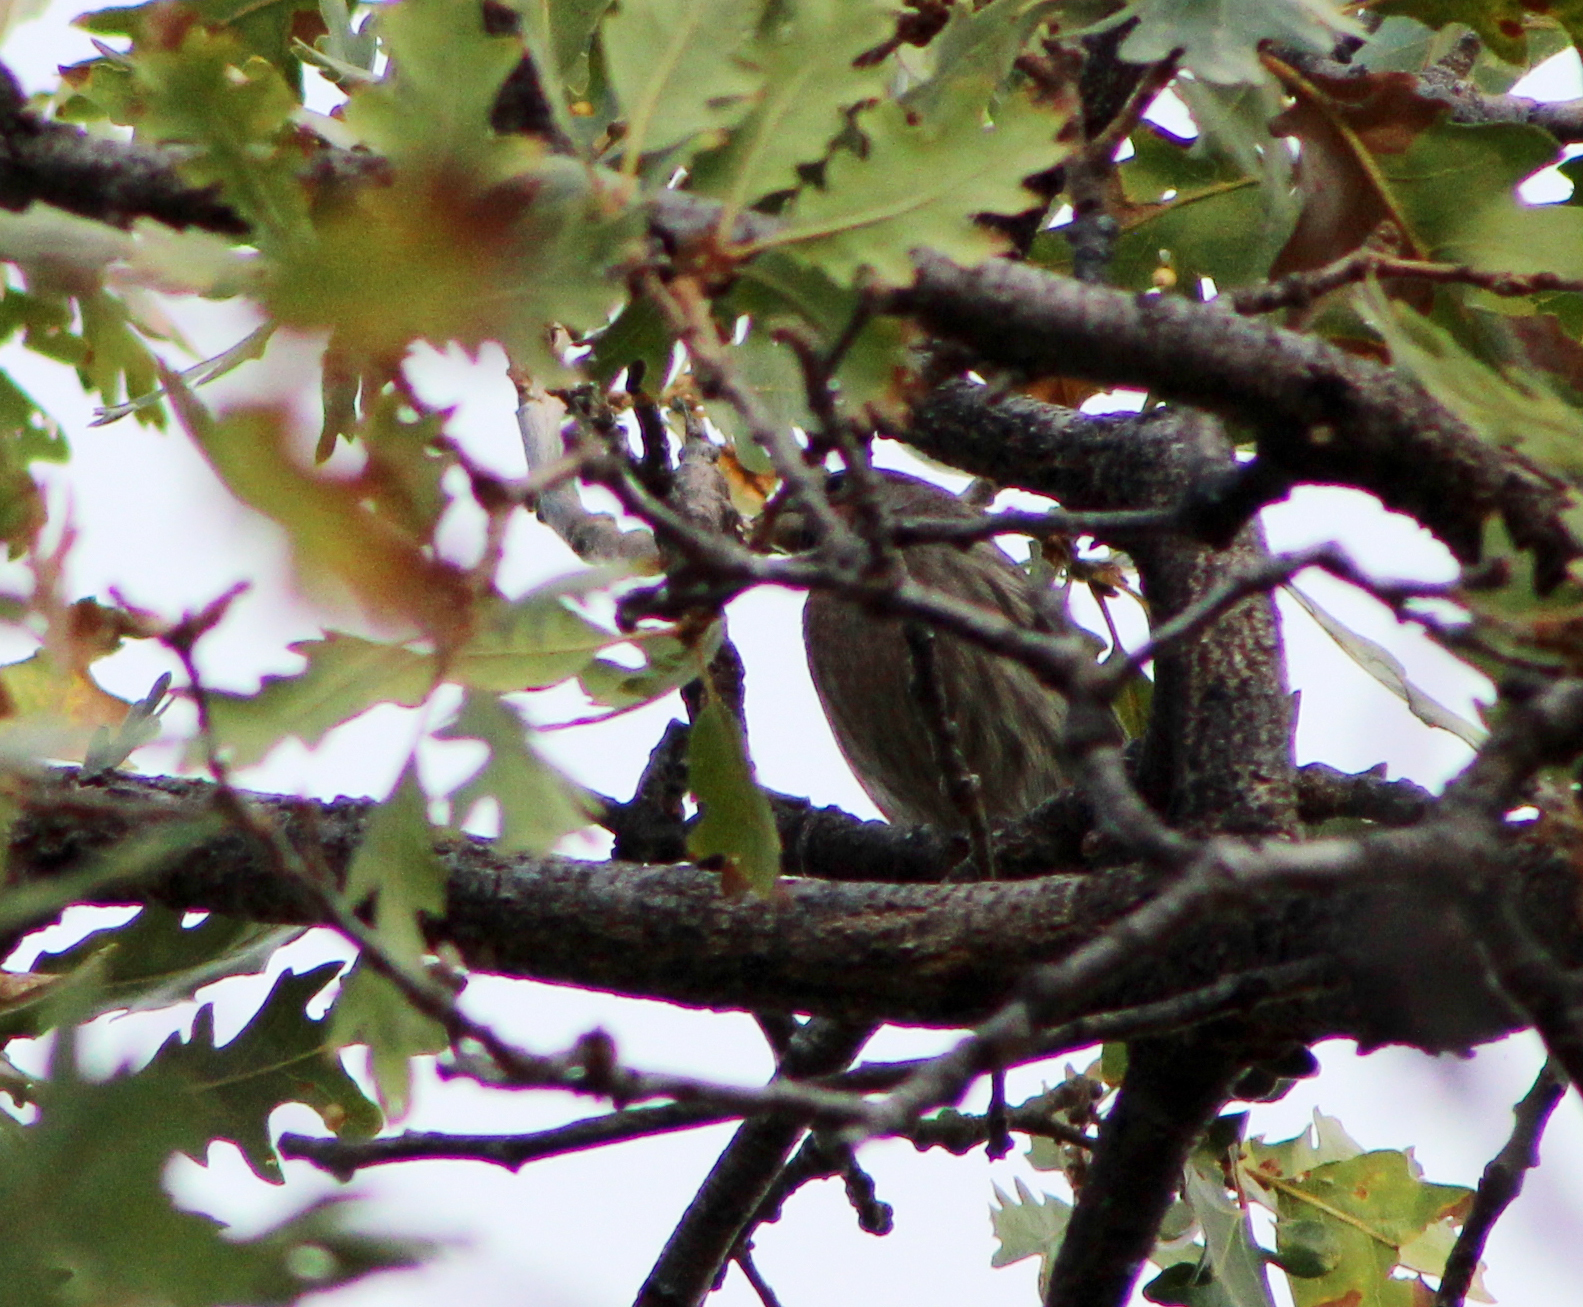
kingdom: Animalia
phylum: Chordata
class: Aves
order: Passeriformes
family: Fringillidae
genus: Haemorhous
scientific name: Haemorhous mexicanus
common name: House finch
